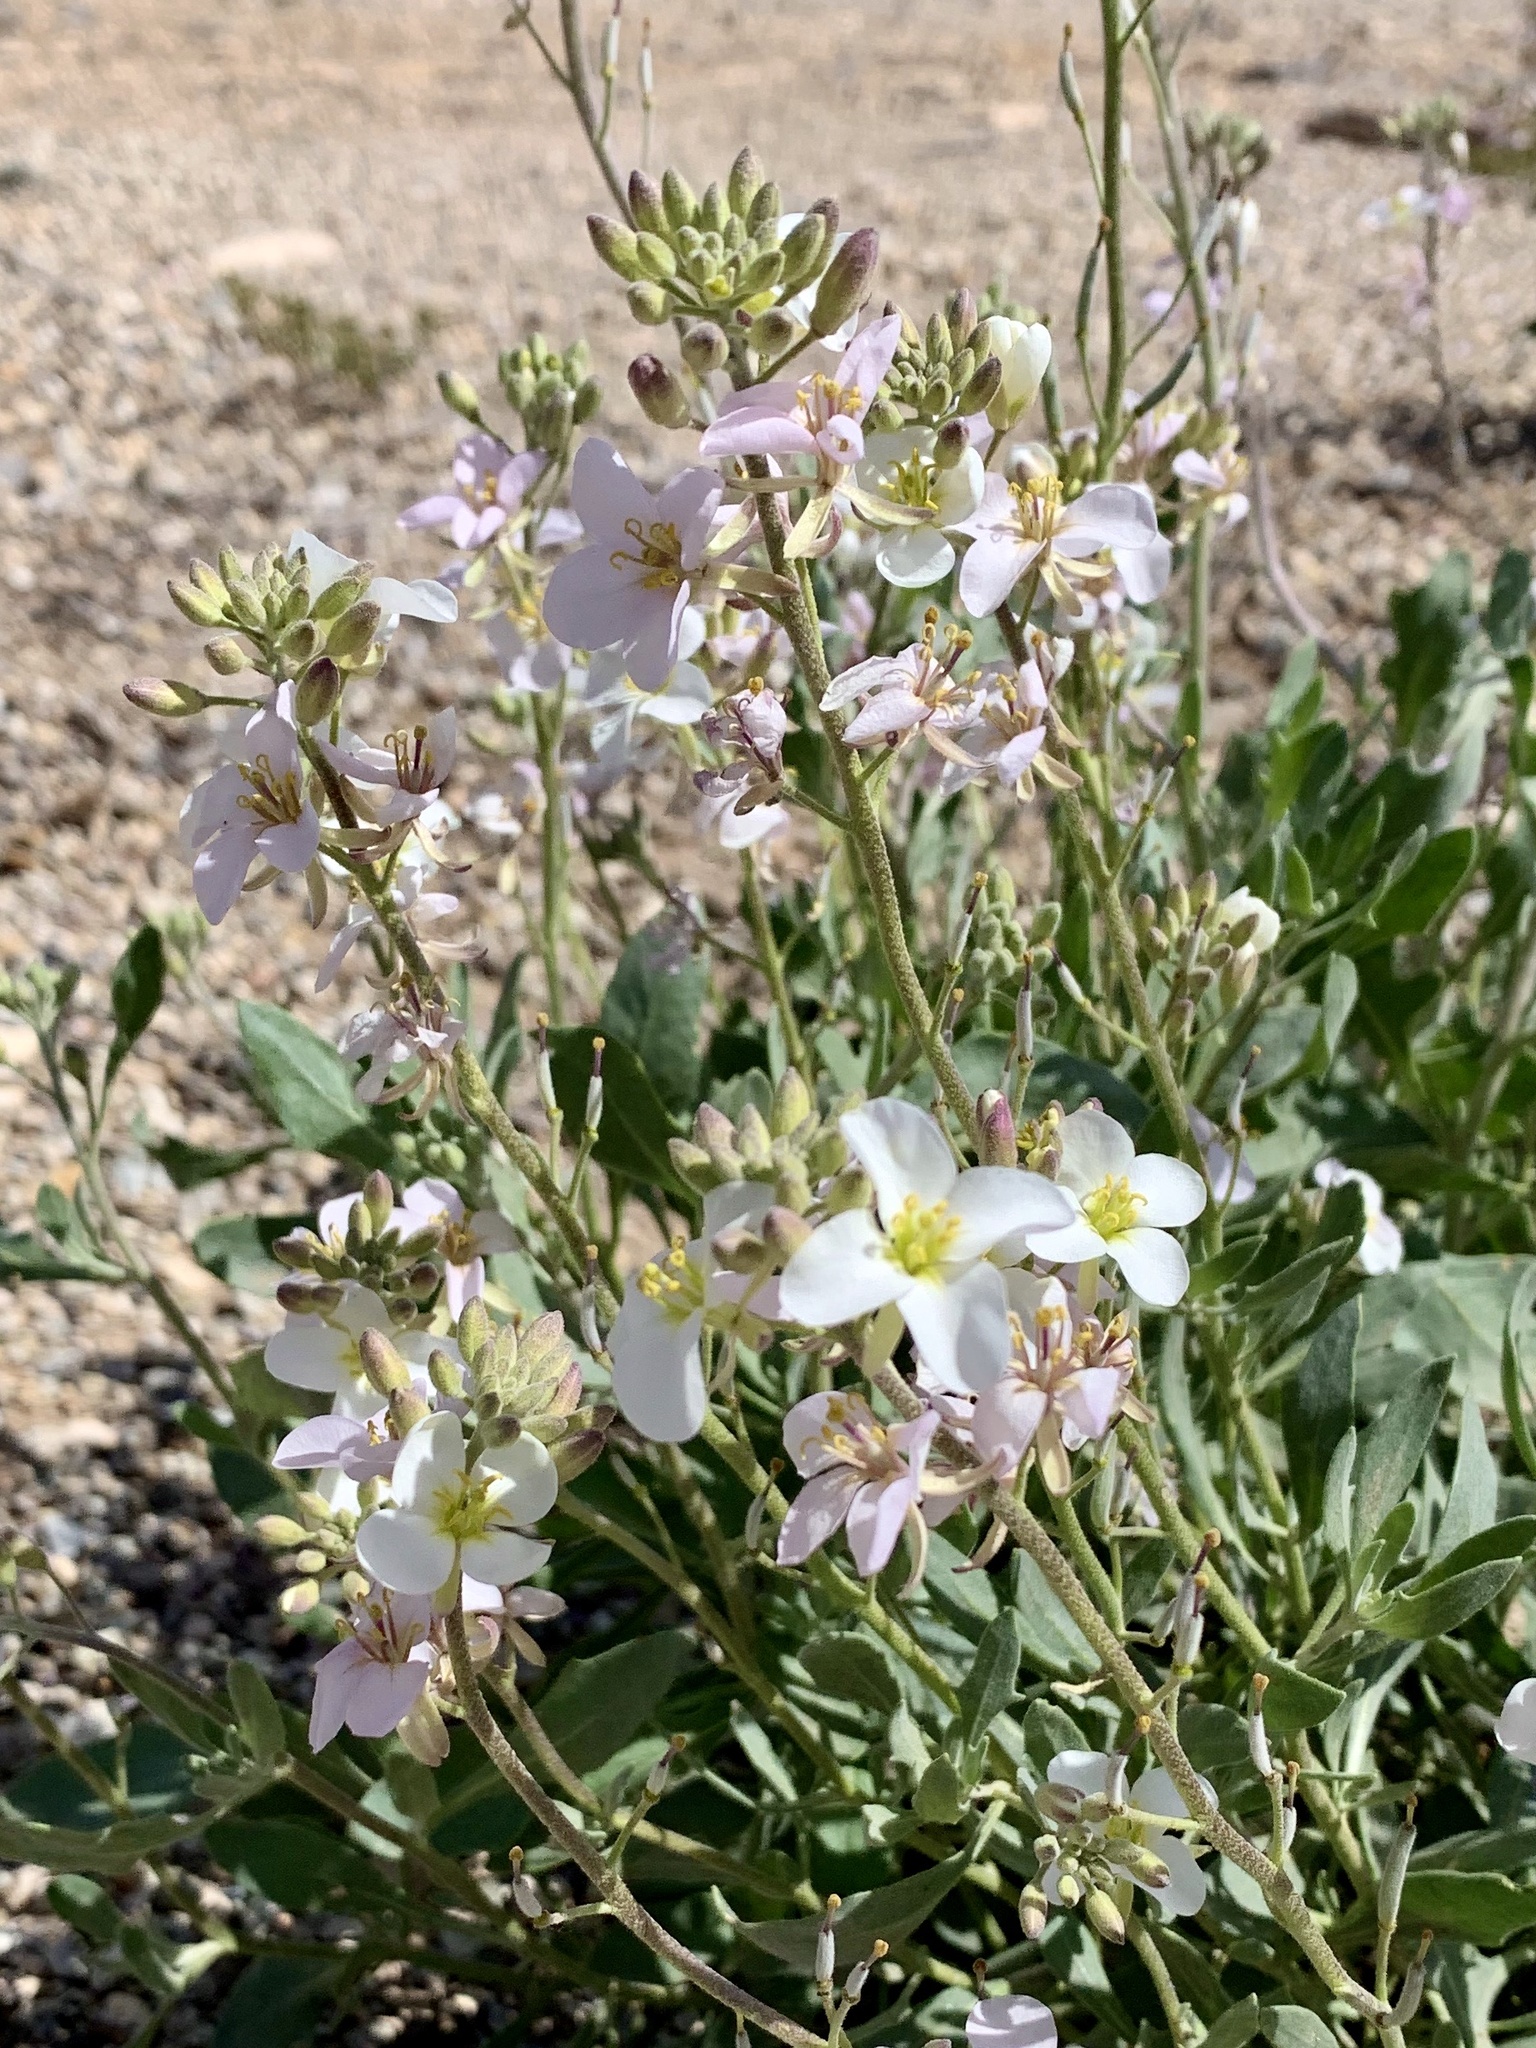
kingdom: Plantae
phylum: Tracheophyta
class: Magnoliopsida
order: Brassicales
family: Brassicaceae
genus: Nerisyrenia
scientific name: Nerisyrenia camporum
